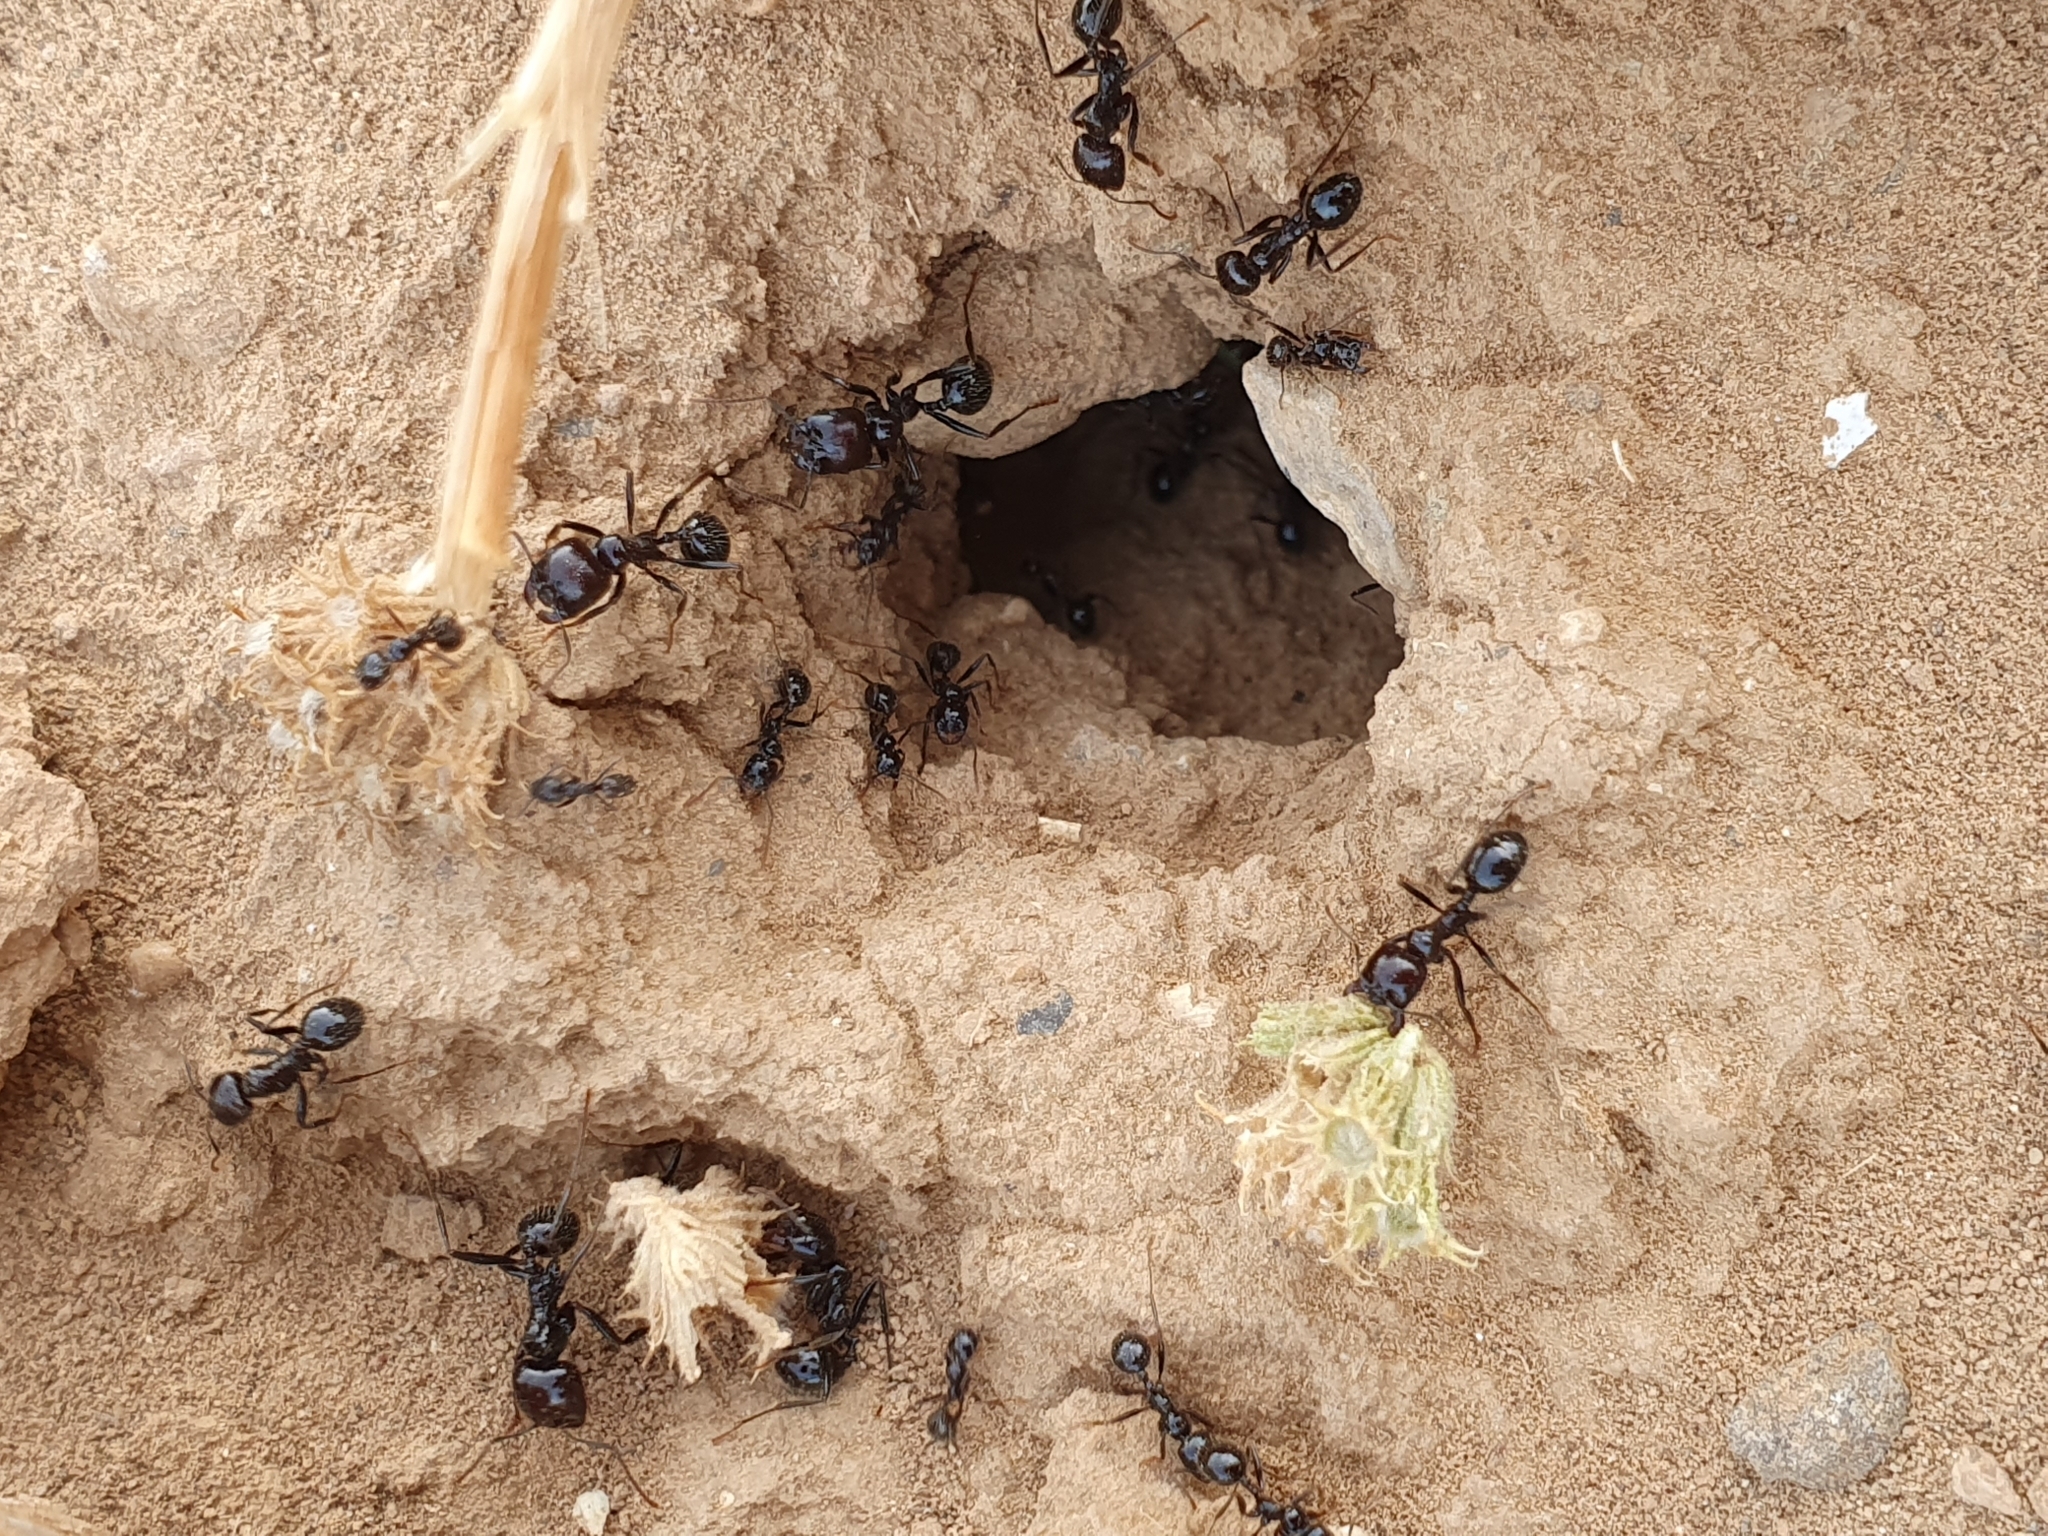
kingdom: Animalia
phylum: Arthropoda
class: Insecta
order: Hymenoptera
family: Formicidae
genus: Messor
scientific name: Messor barbarus
